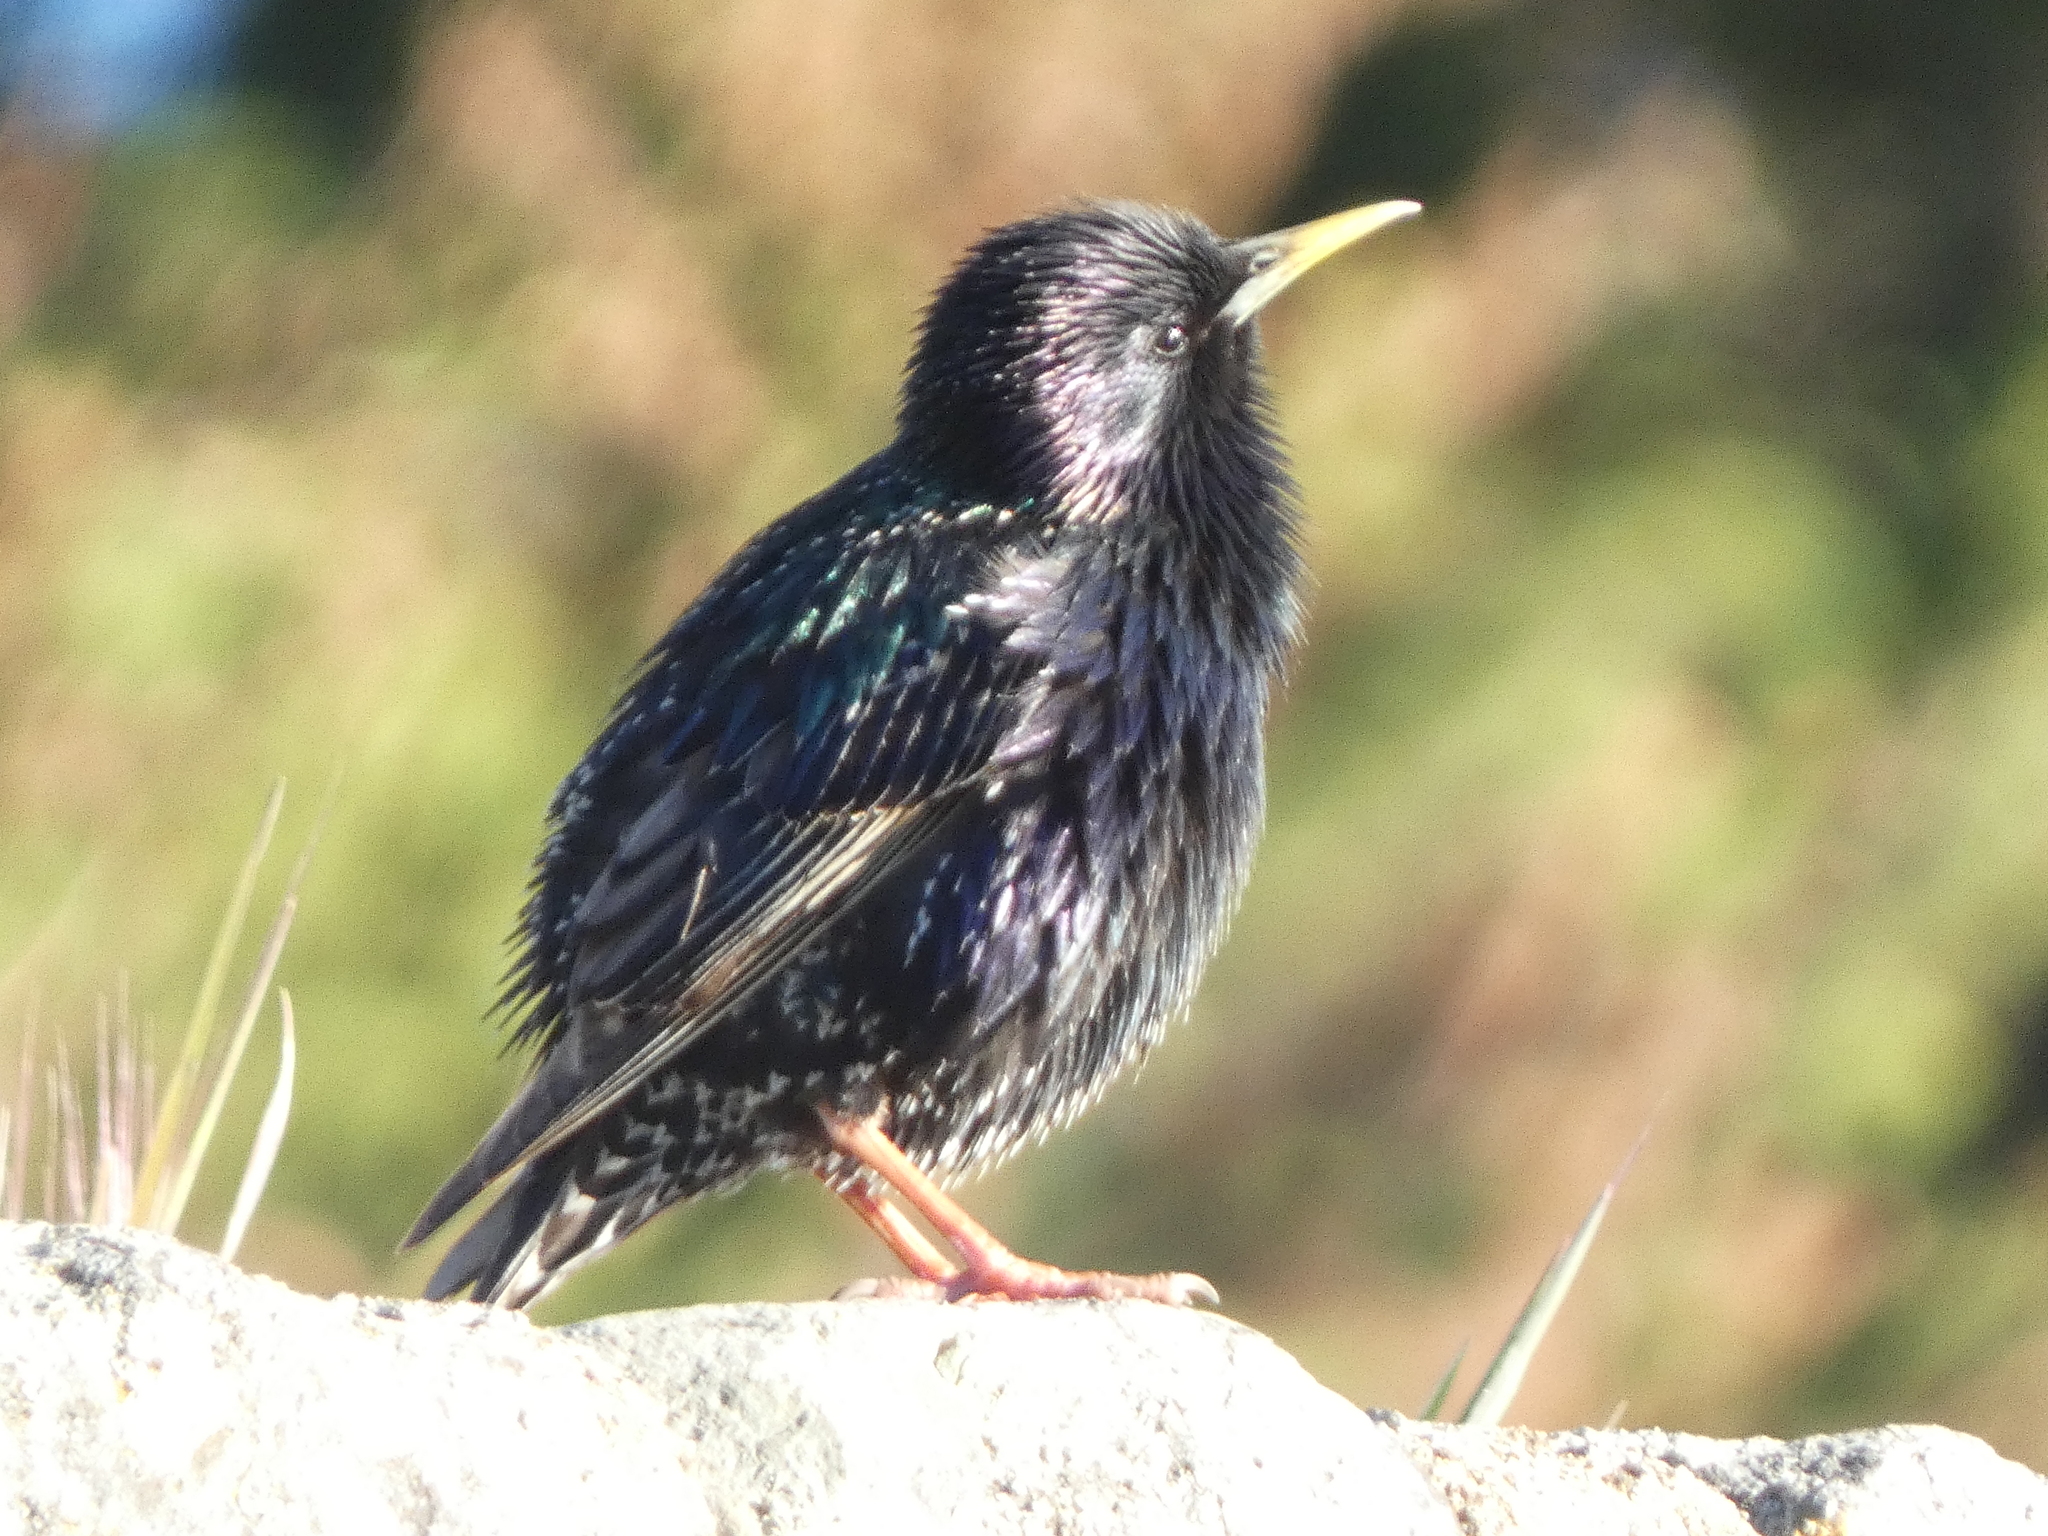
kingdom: Animalia
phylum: Chordata
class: Aves
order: Passeriformes
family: Sturnidae
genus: Sturnus
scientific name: Sturnus vulgaris
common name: Common starling
